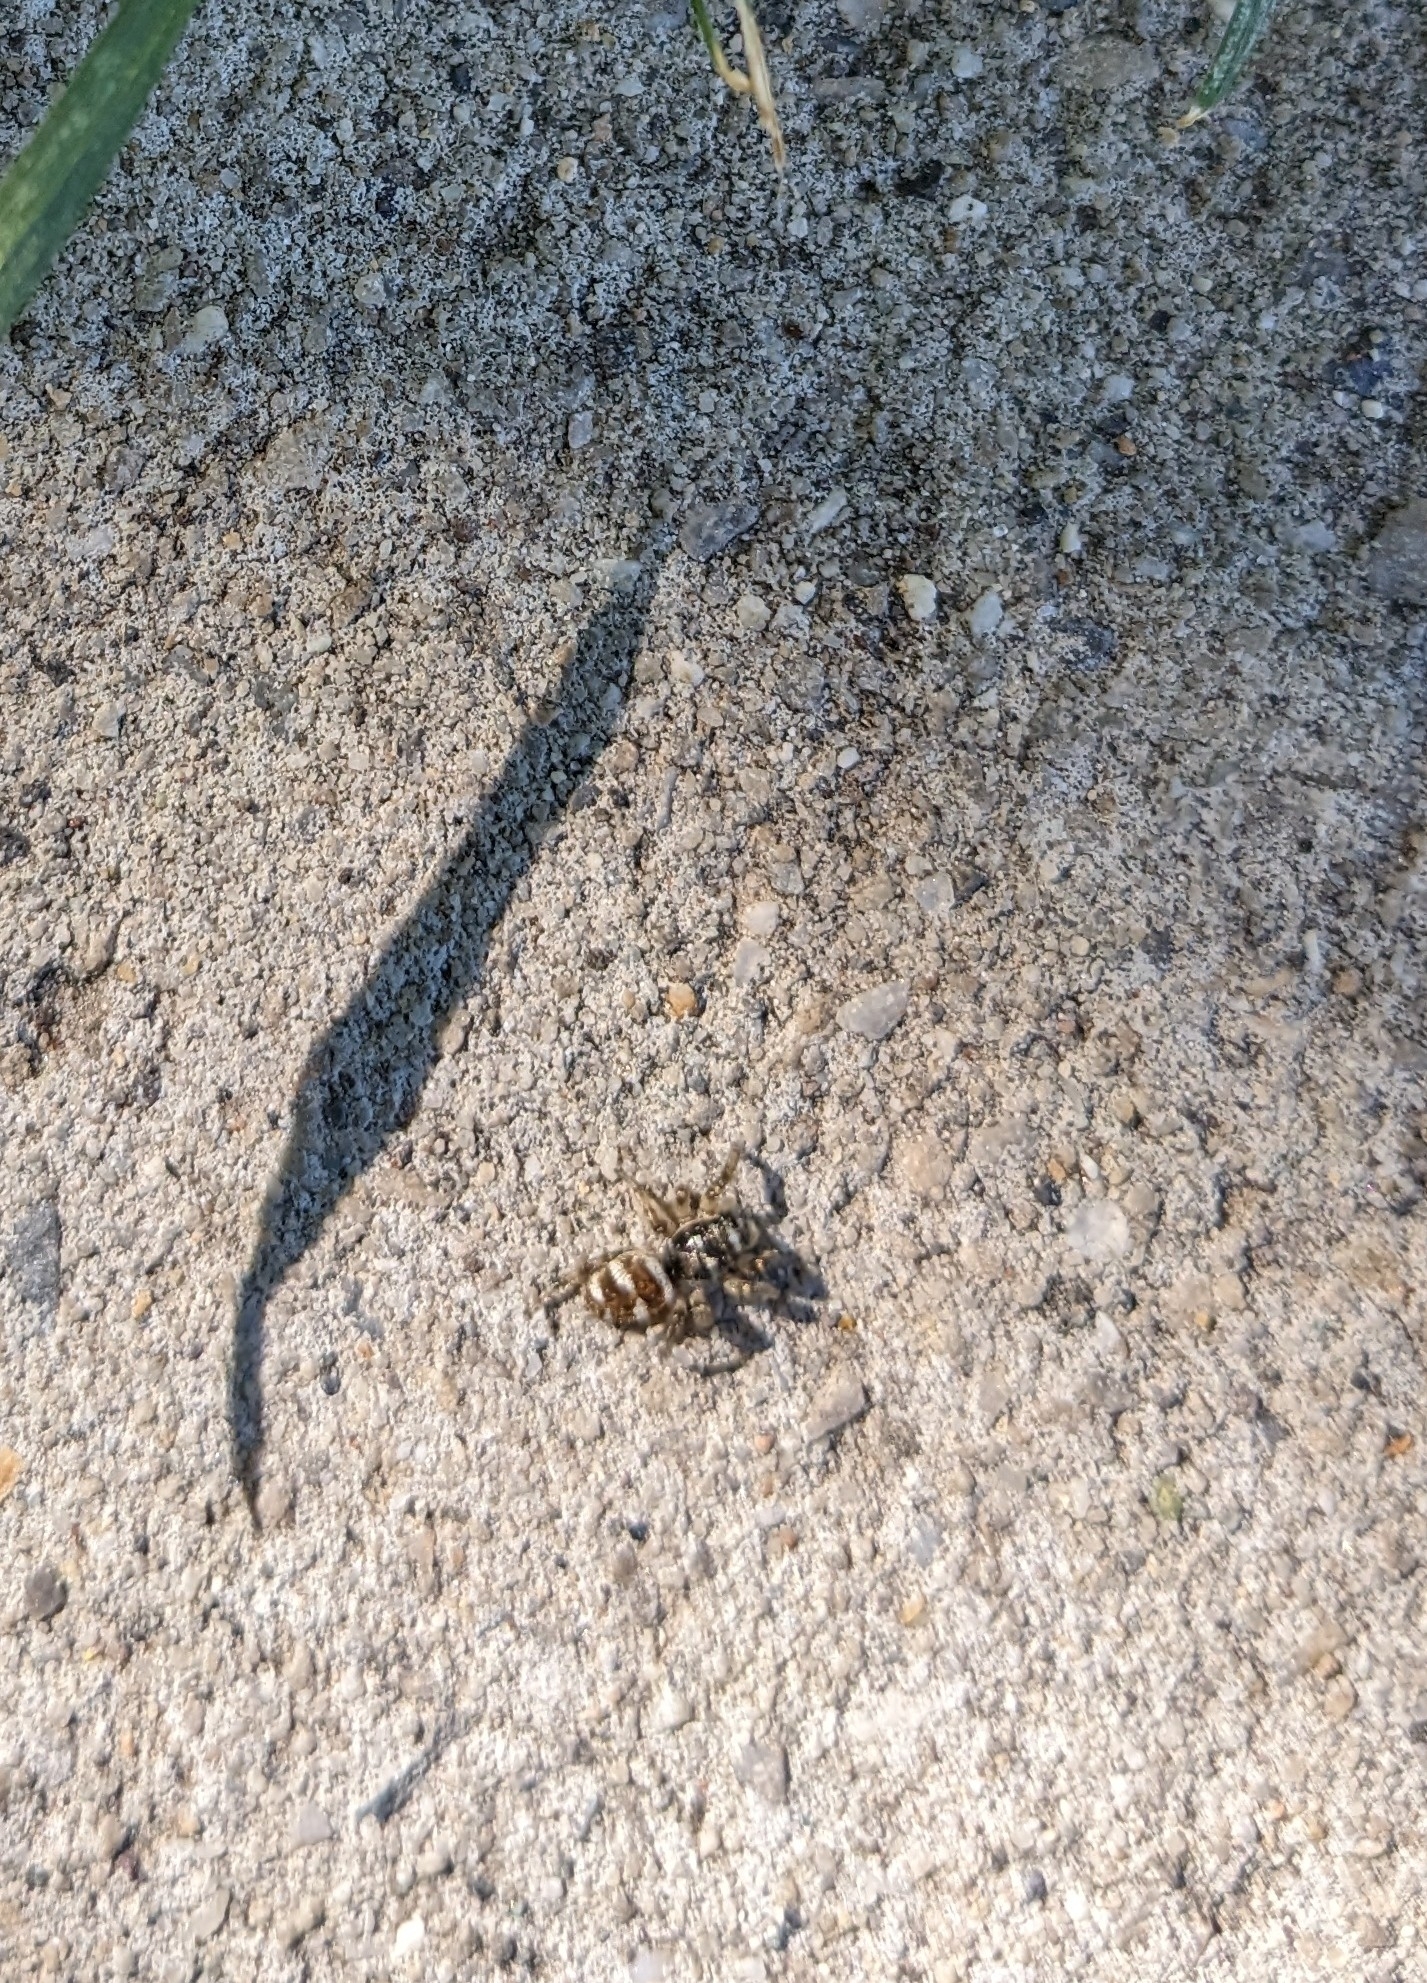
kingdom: Animalia
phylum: Arthropoda
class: Arachnida
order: Araneae
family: Salticidae
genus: Salticus
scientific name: Salticus scenicus
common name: Zebra jumper
